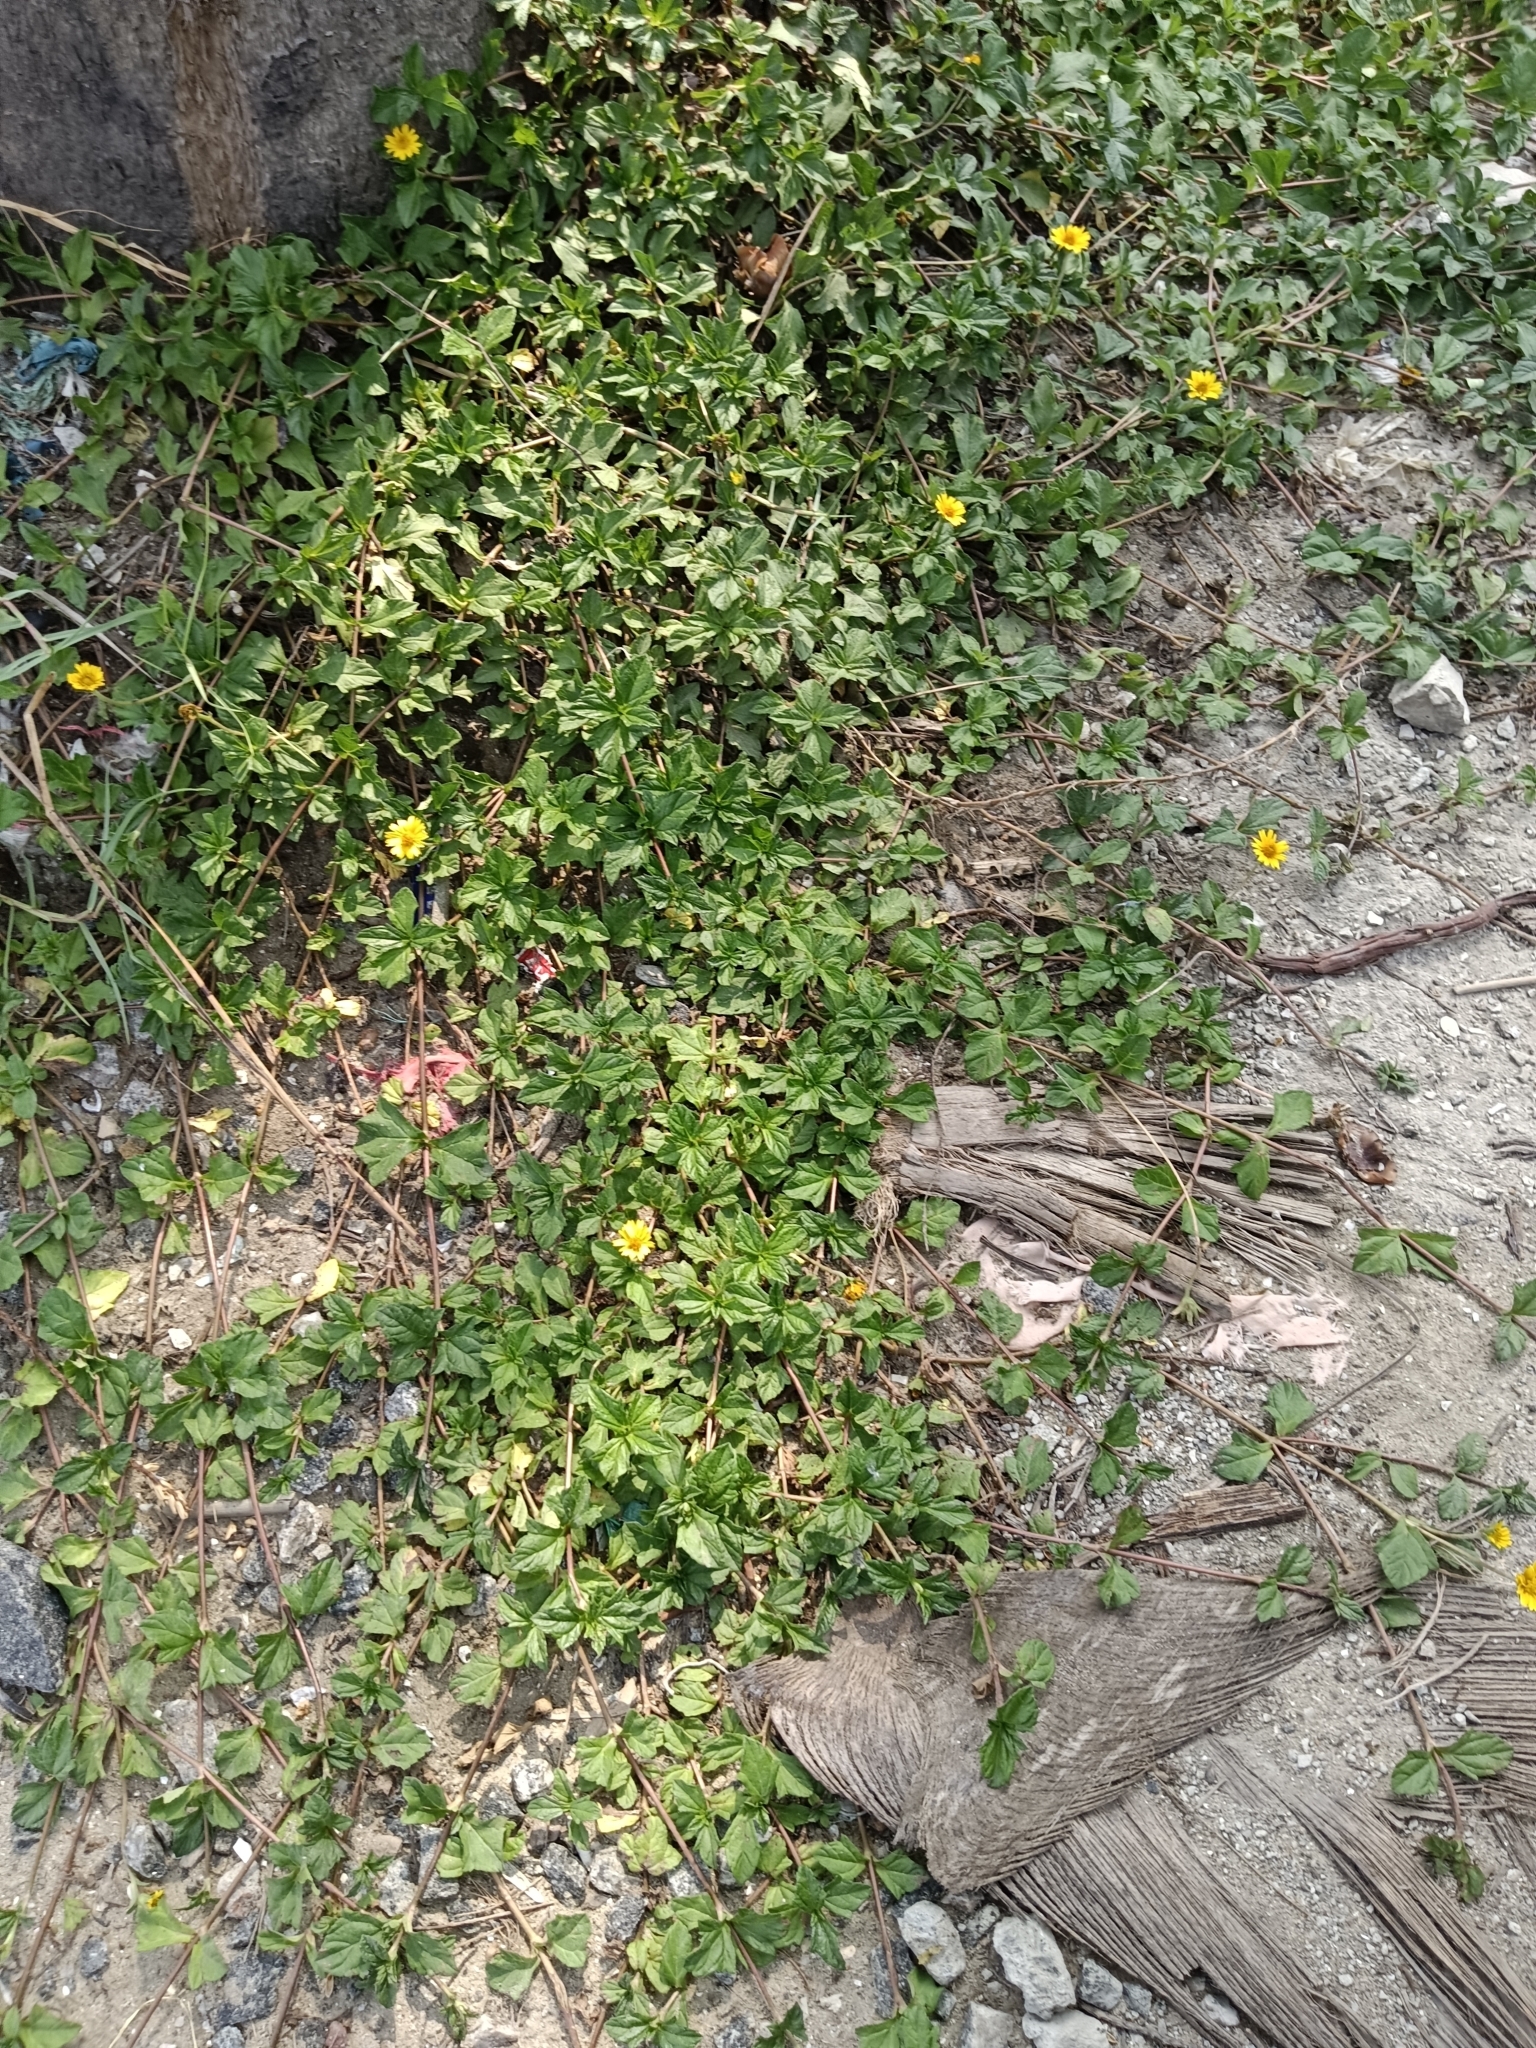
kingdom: Plantae
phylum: Tracheophyta
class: Magnoliopsida
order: Asterales
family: Asteraceae
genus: Sphagneticola
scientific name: Sphagneticola trilobata
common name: Bay biscayne creeping-oxeye
